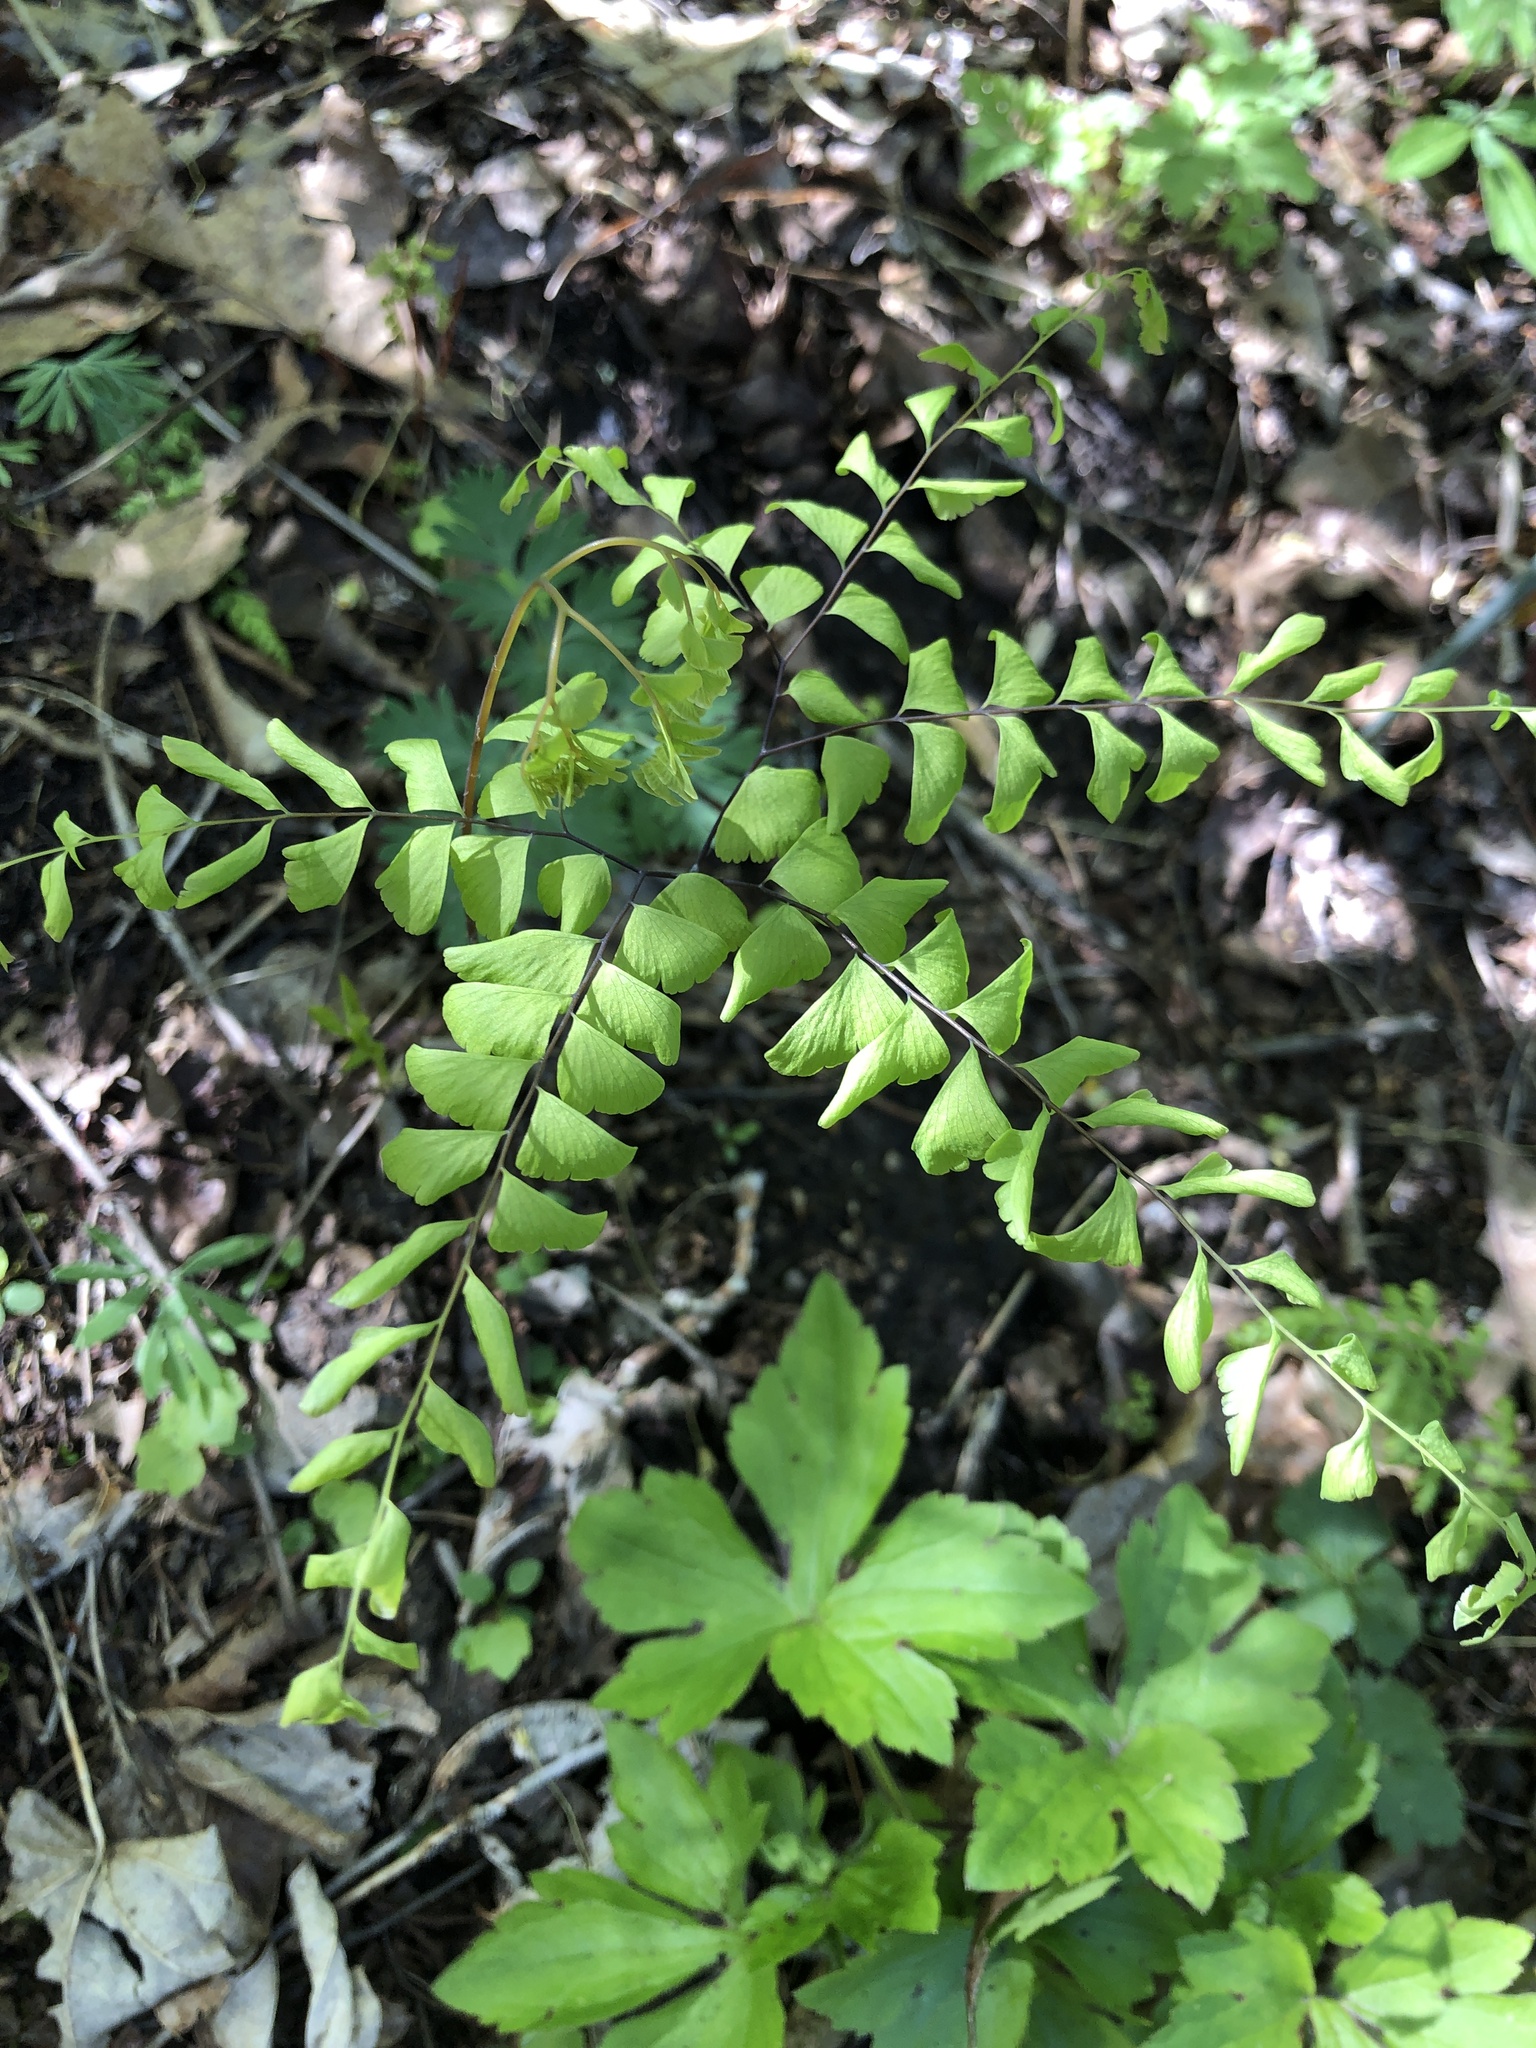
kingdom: Plantae
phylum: Tracheophyta
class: Polypodiopsida
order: Polypodiales
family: Pteridaceae
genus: Adiantum
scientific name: Adiantum pedatum
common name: Five-finger fern
